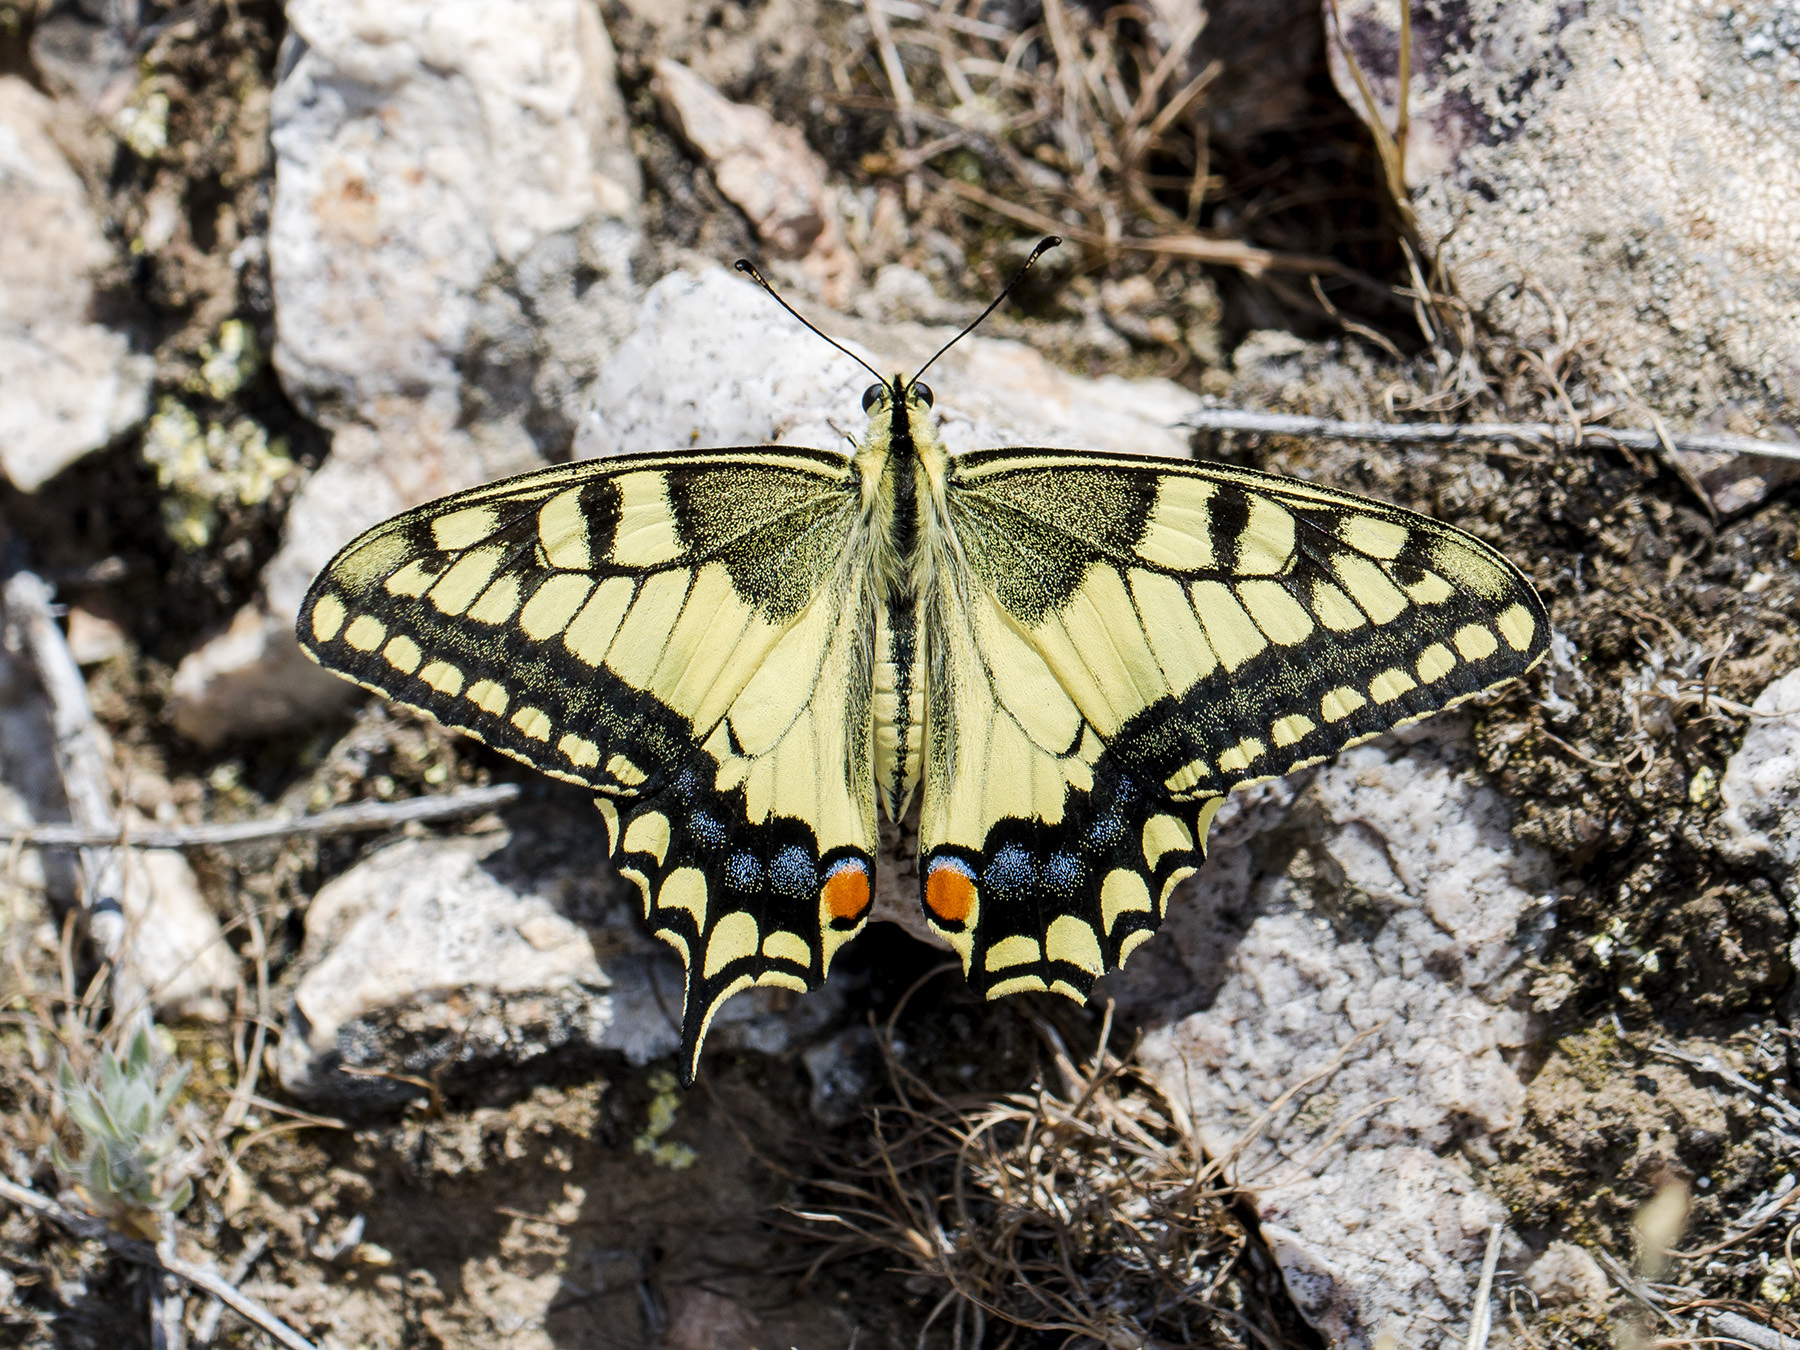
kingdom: Animalia
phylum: Arthropoda
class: Insecta
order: Lepidoptera
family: Papilionidae
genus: Papilio
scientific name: Papilio machaon
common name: Swallowtail
